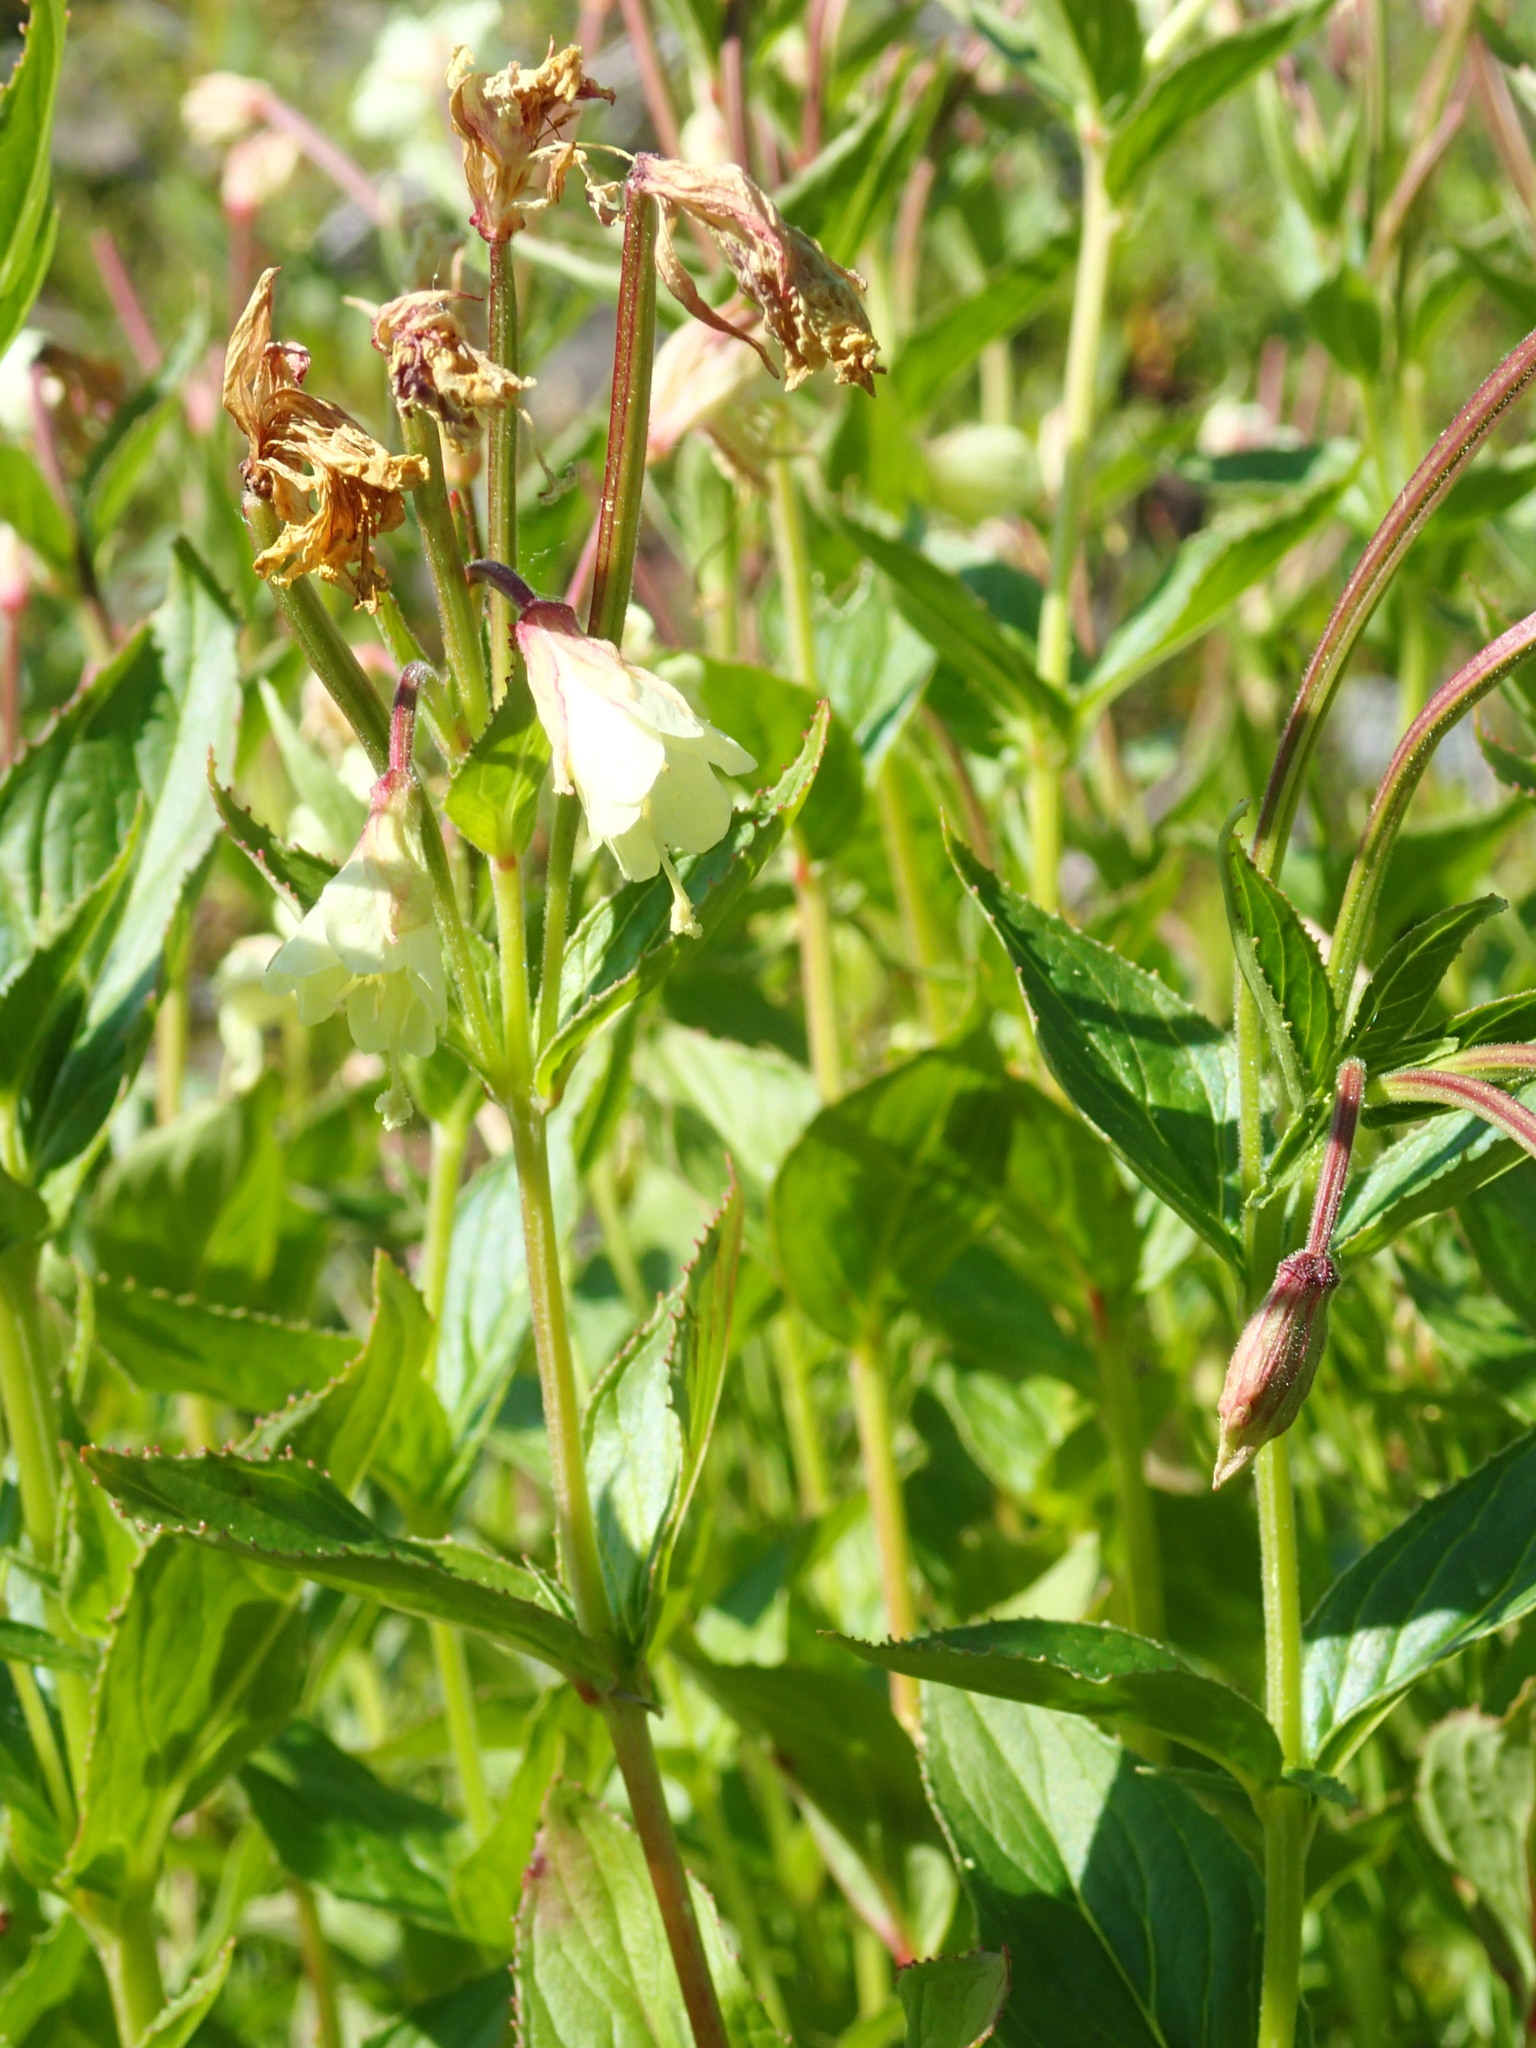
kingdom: Plantae
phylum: Tracheophyta
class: Magnoliopsida
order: Myrtales
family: Onagraceae
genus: Epilobium
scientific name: Epilobium luteum
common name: Yellow willowherb
